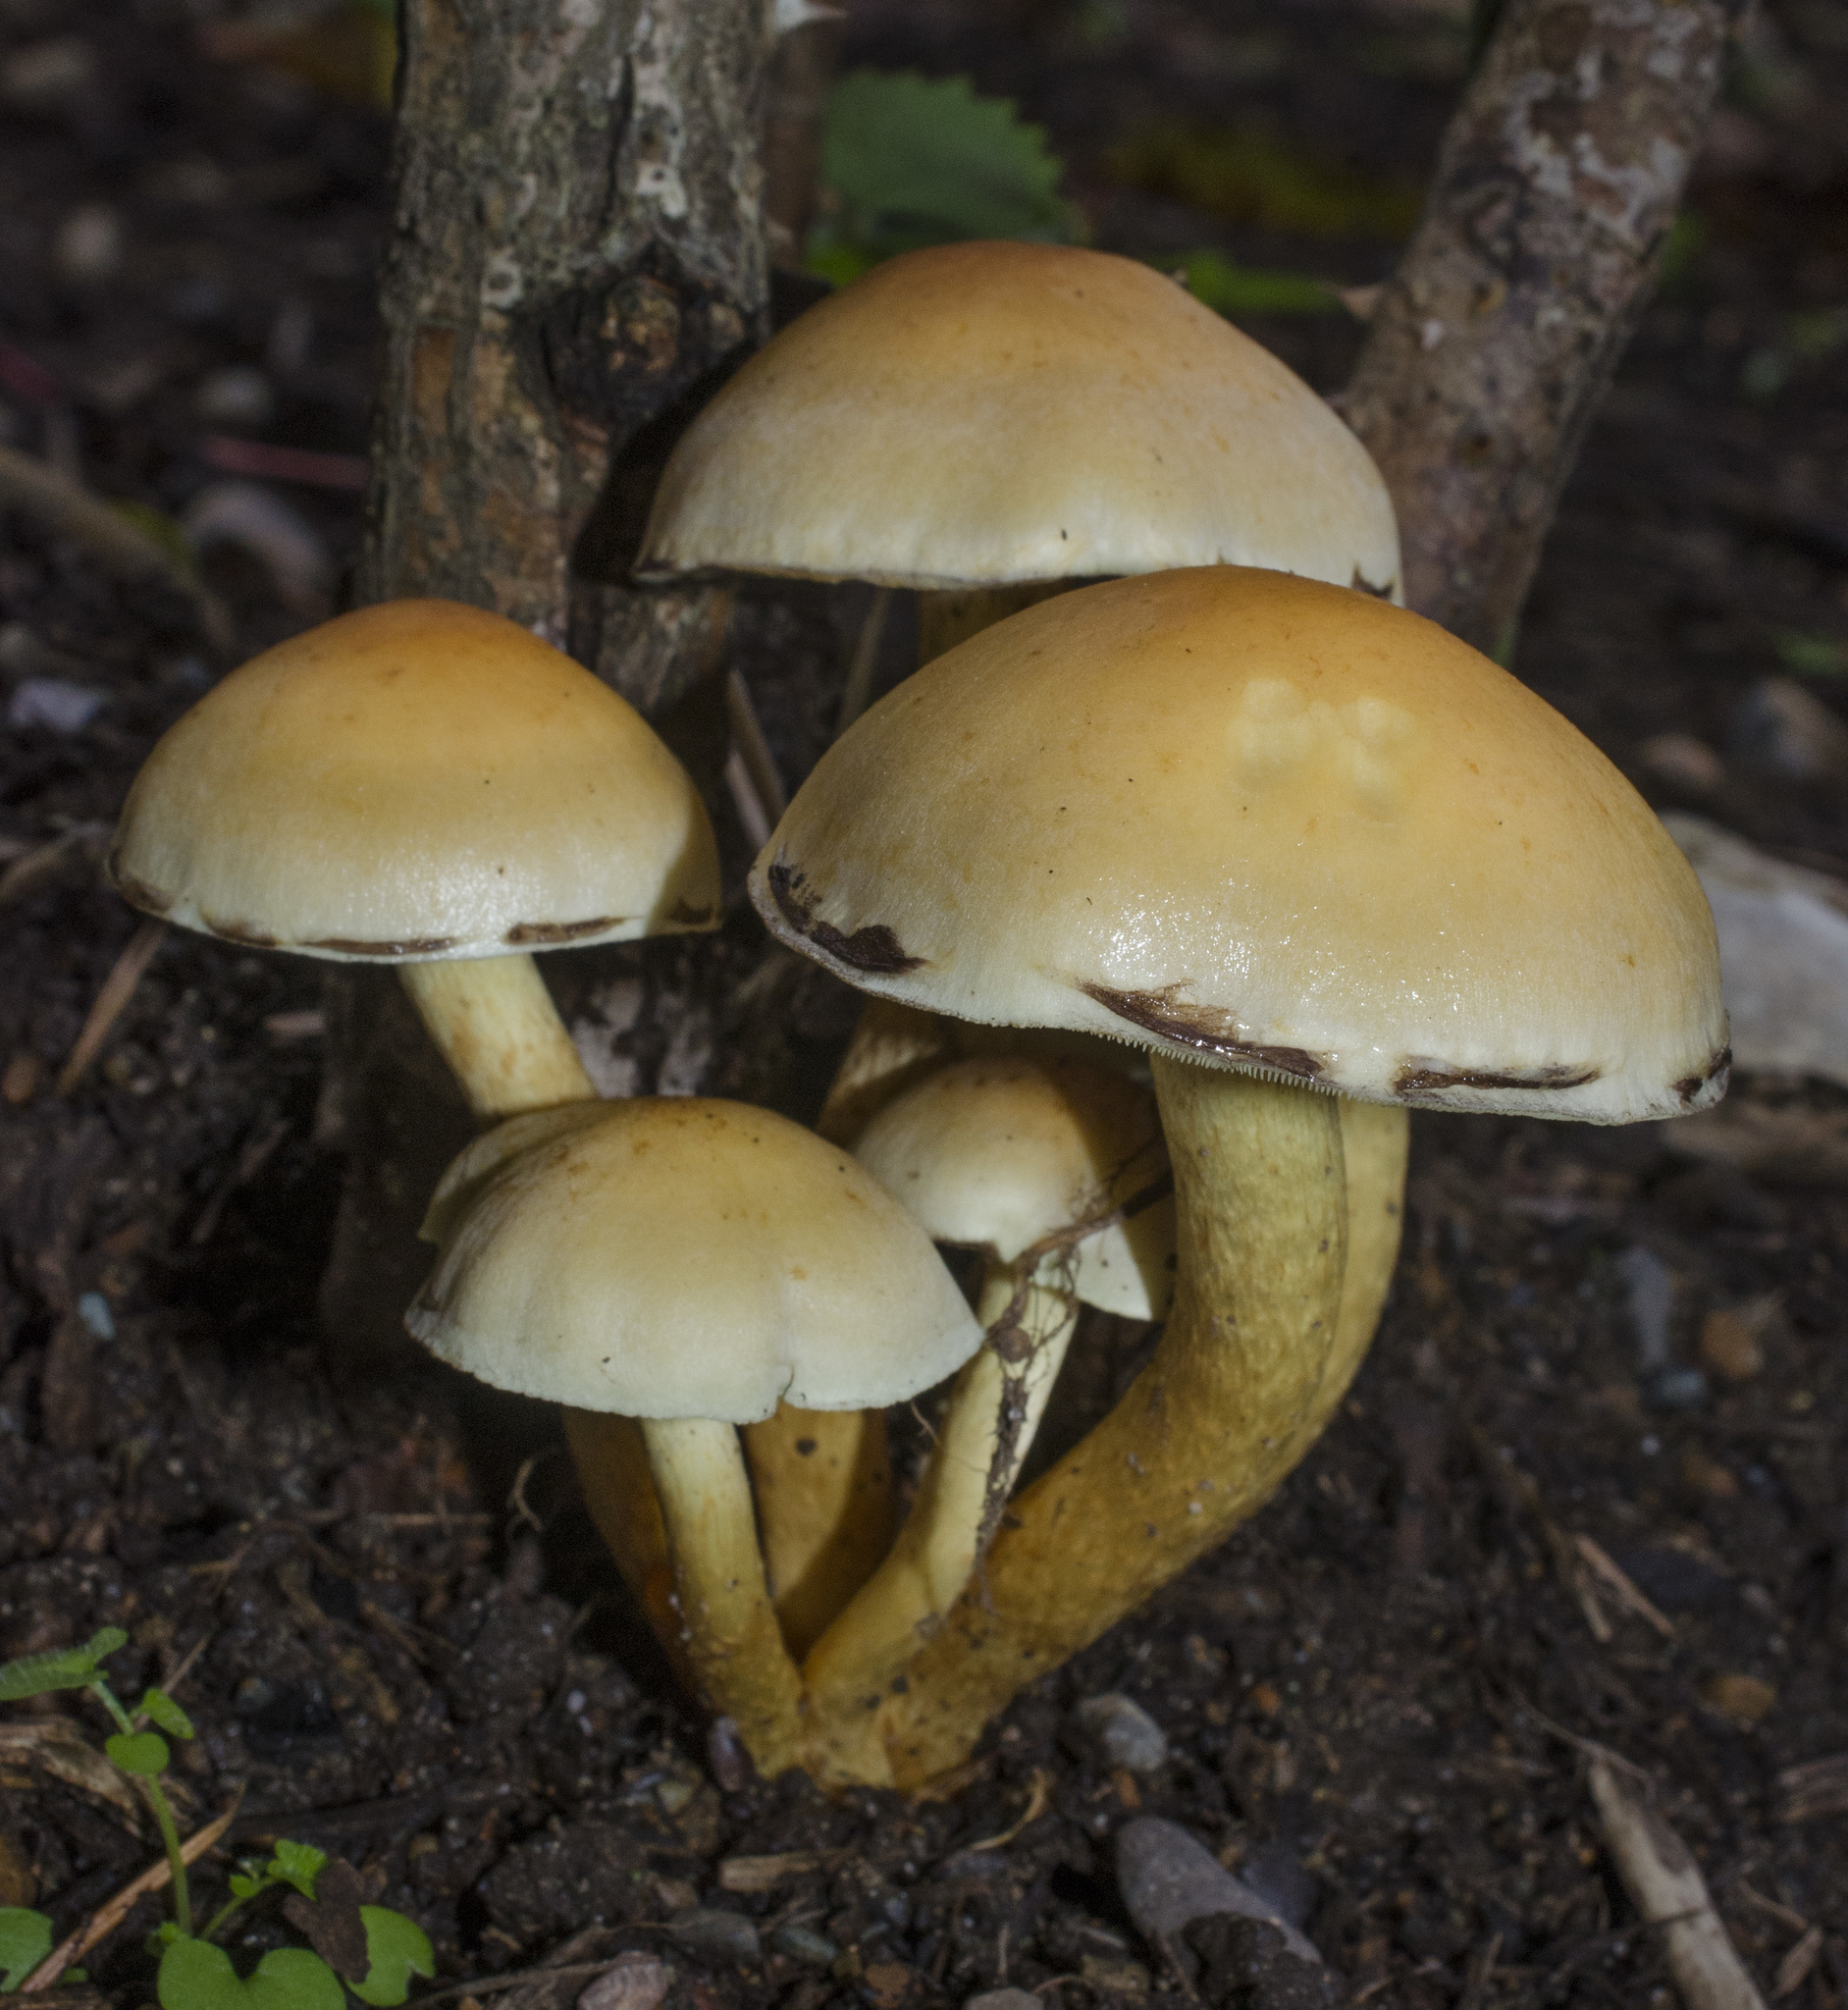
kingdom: Fungi
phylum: Basidiomycota
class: Agaricomycetes
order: Agaricales
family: Strophariaceae
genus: Hypholoma
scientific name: Hypholoma fasciculare
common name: Sulphur tuft
